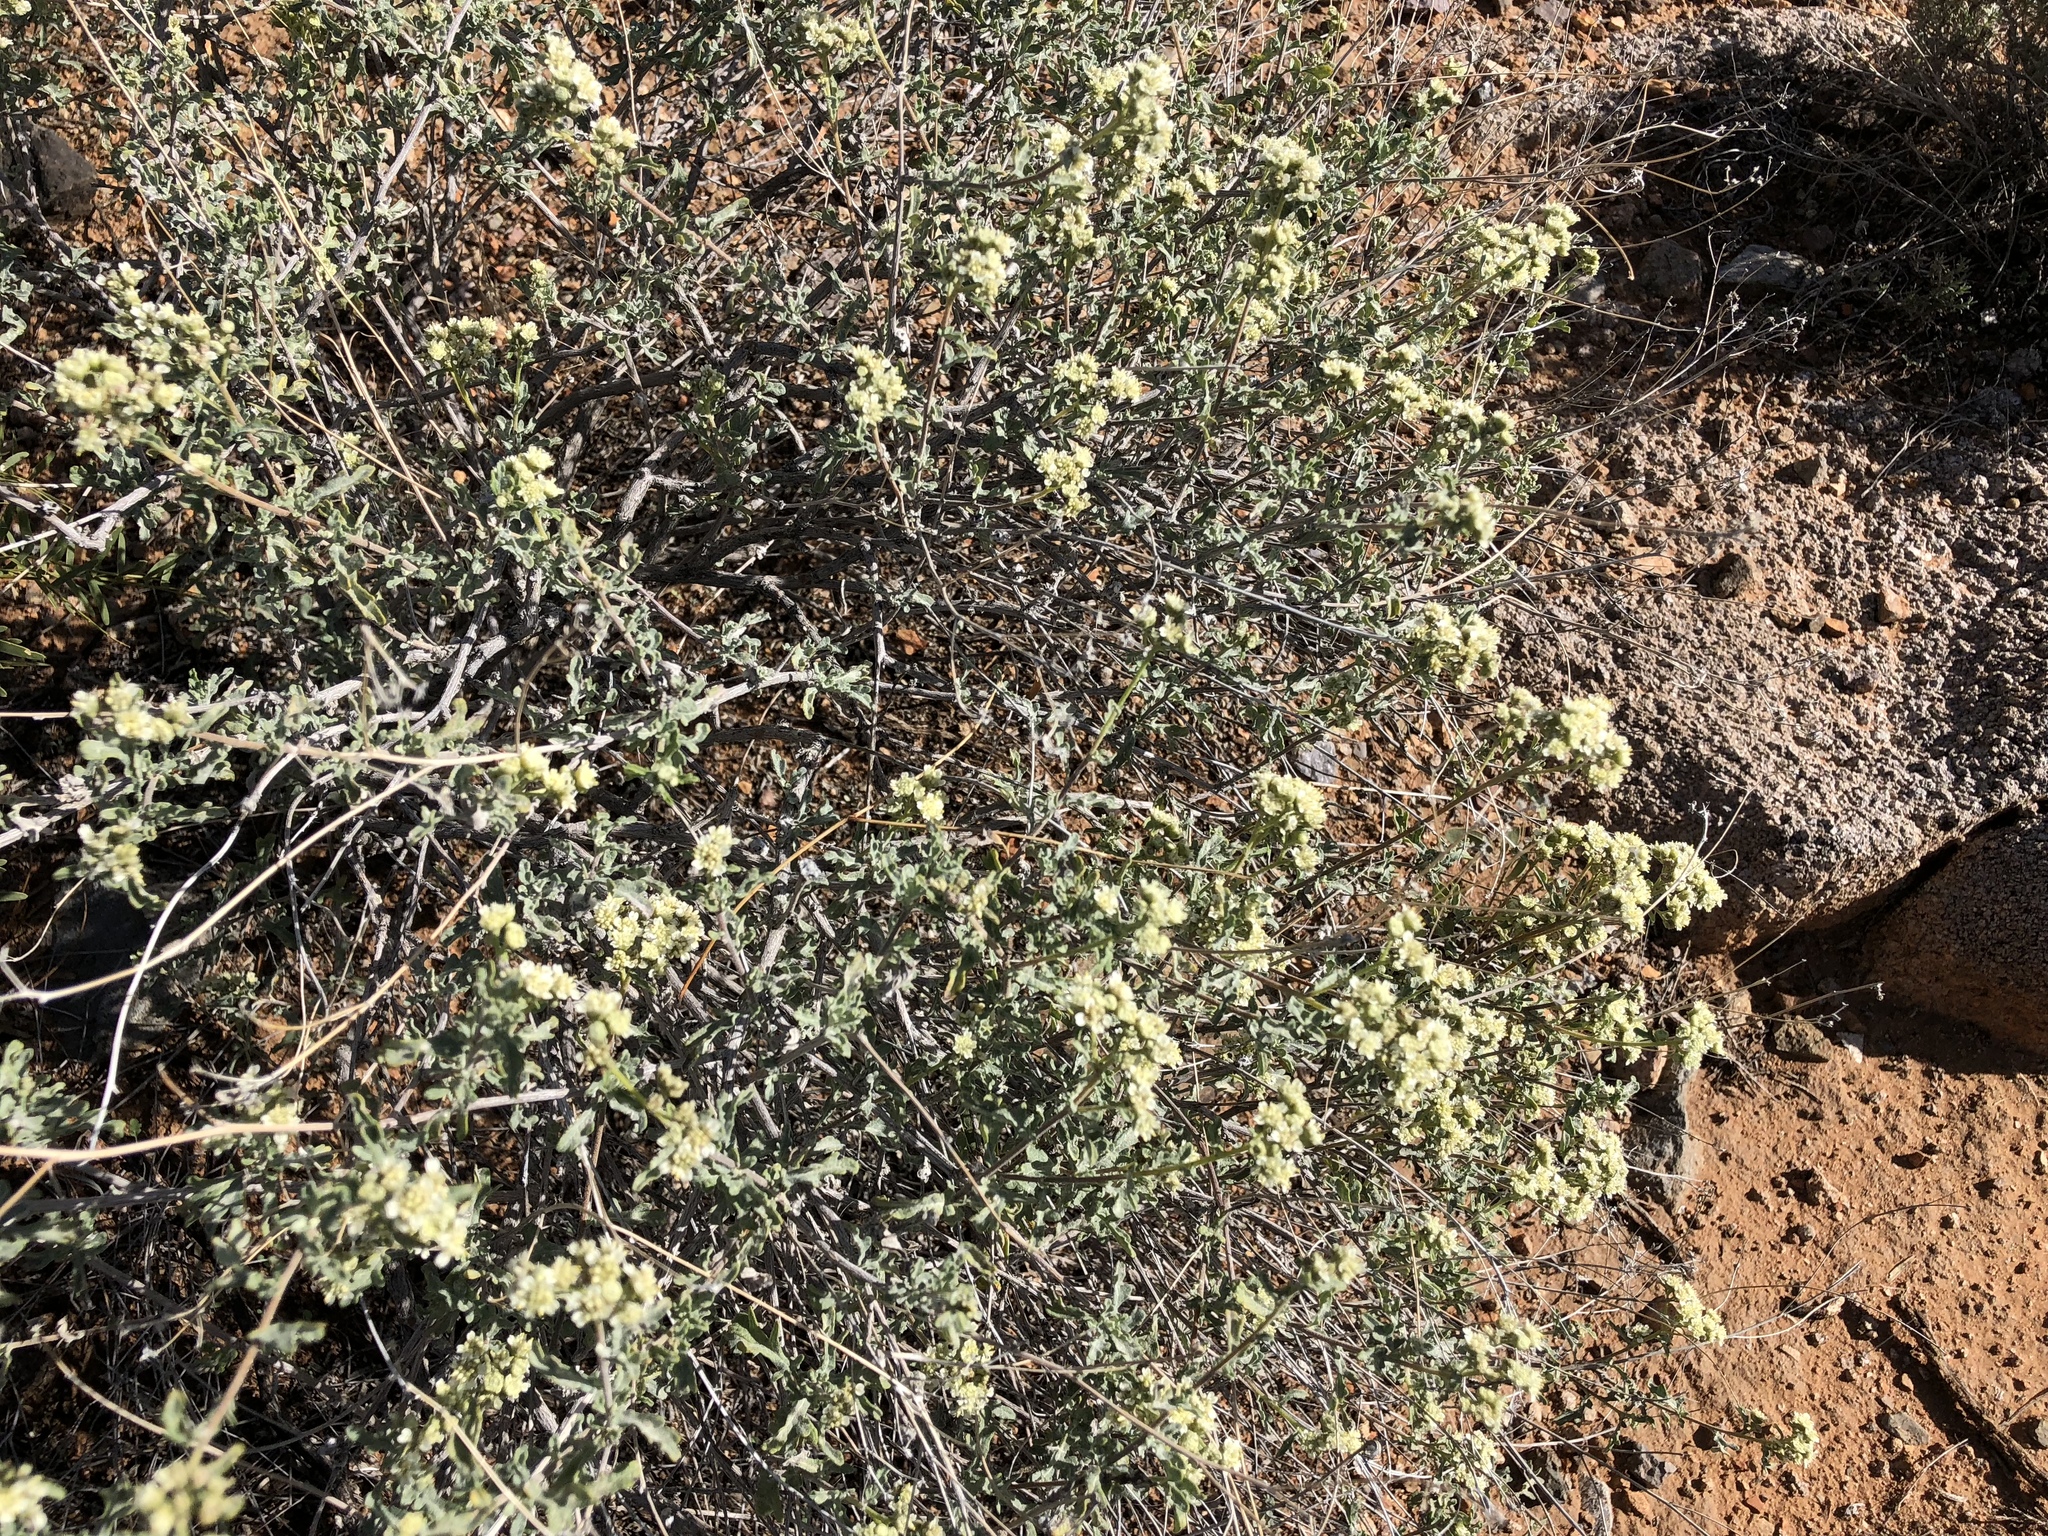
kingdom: Plantae
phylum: Tracheophyta
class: Magnoliopsida
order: Asterales
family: Asteraceae
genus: Parthenium
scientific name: Parthenium incanum
